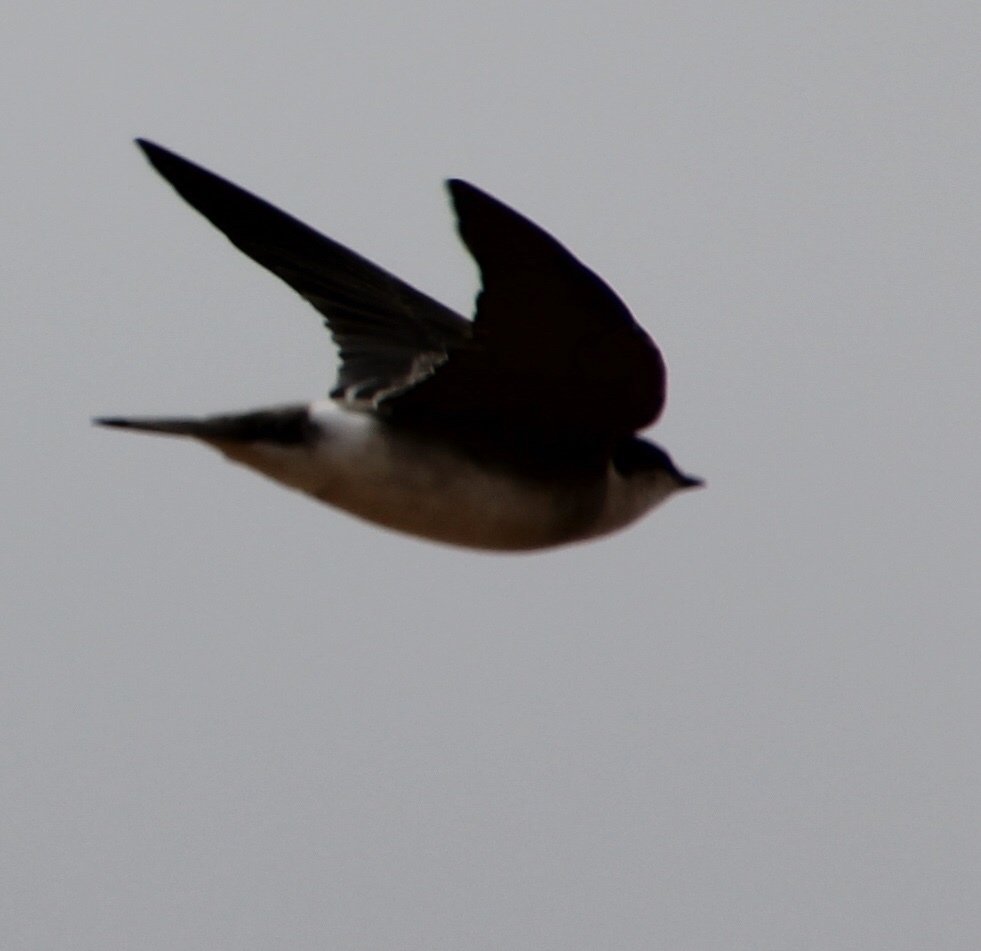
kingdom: Animalia
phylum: Chordata
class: Aves
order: Passeriformes
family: Hirundinidae
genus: Tachycineta
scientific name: Tachycineta bicolor
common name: Tree swallow
